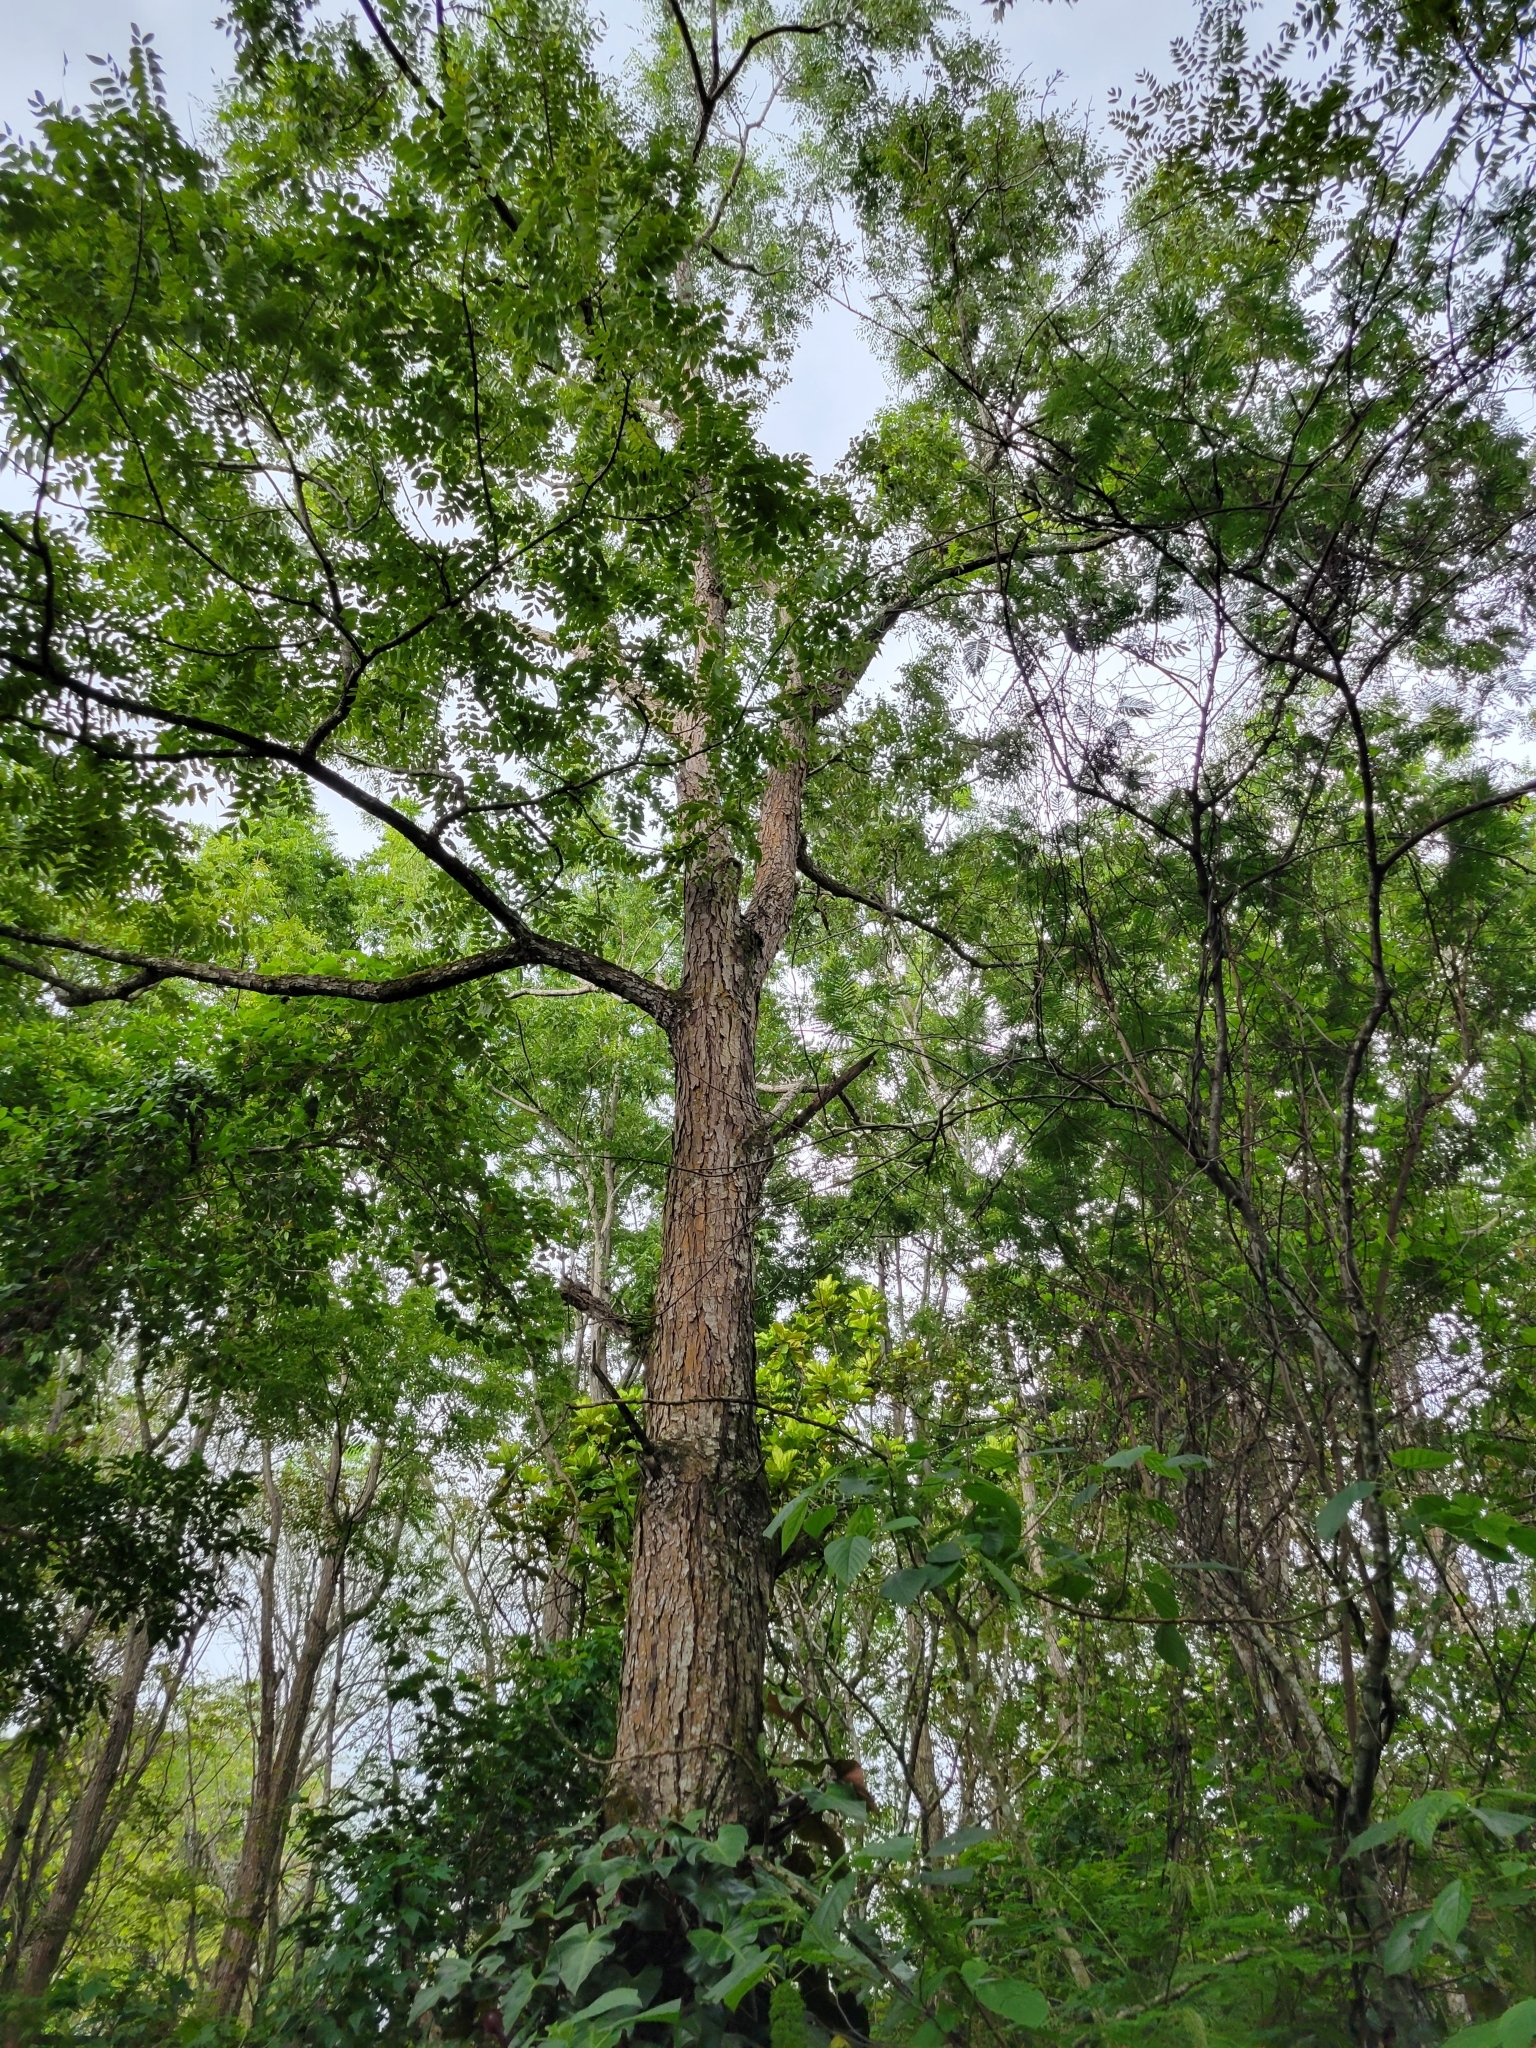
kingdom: Plantae
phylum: Tracheophyta
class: Magnoliopsida
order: Fagales
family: Juglandaceae
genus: Juglans
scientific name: Juglans olanchana
